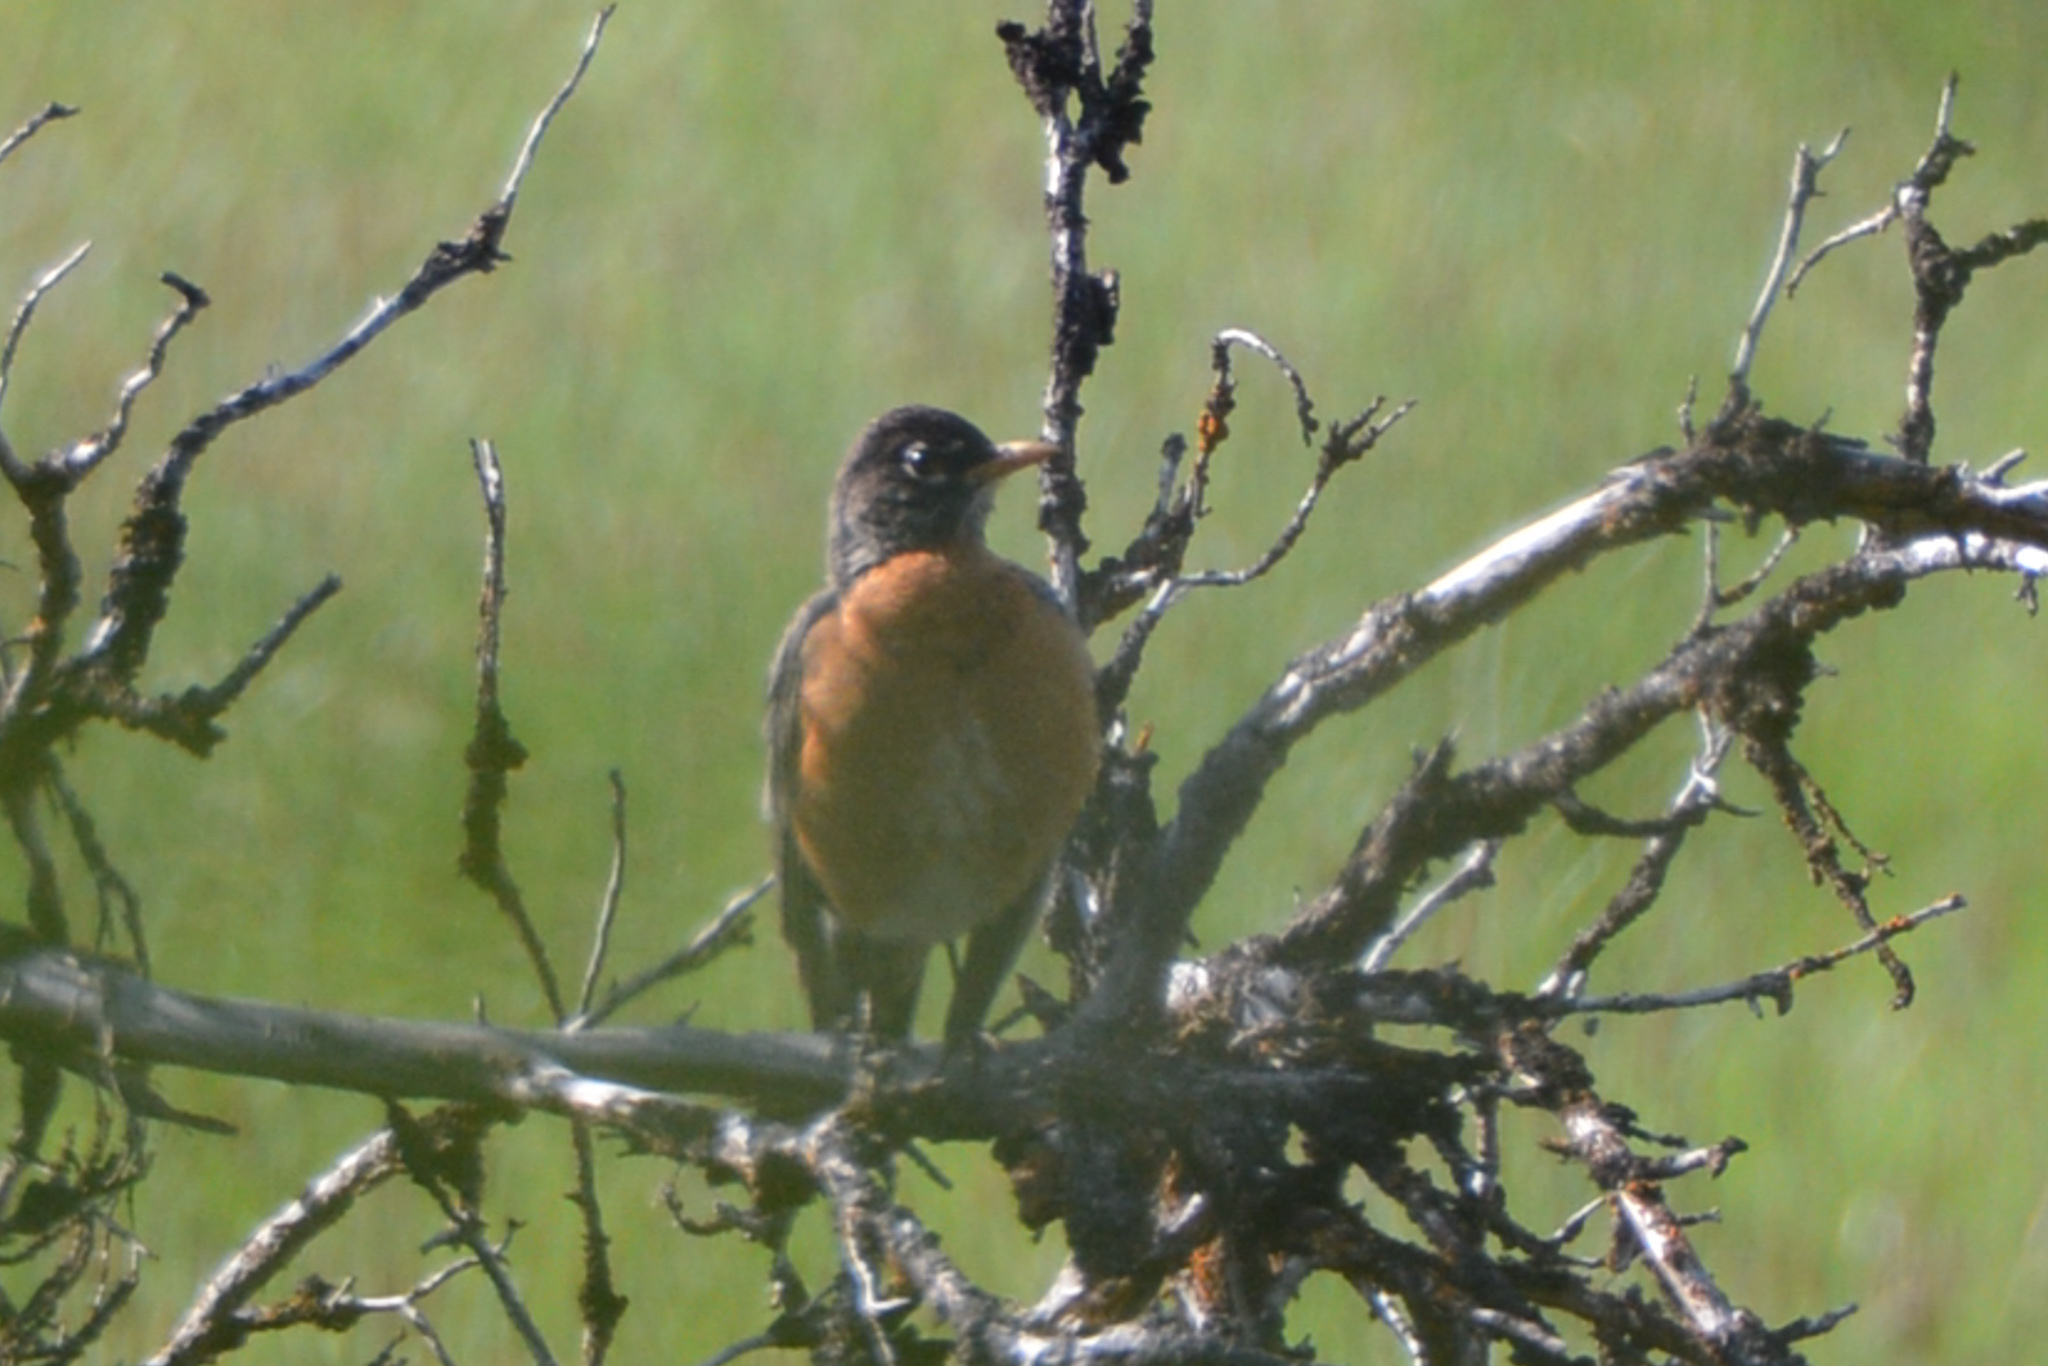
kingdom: Animalia
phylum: Chordata
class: Aves
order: Passeriformes
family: Turdidae
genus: Turdus
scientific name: Turdus migratorius
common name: American robin
